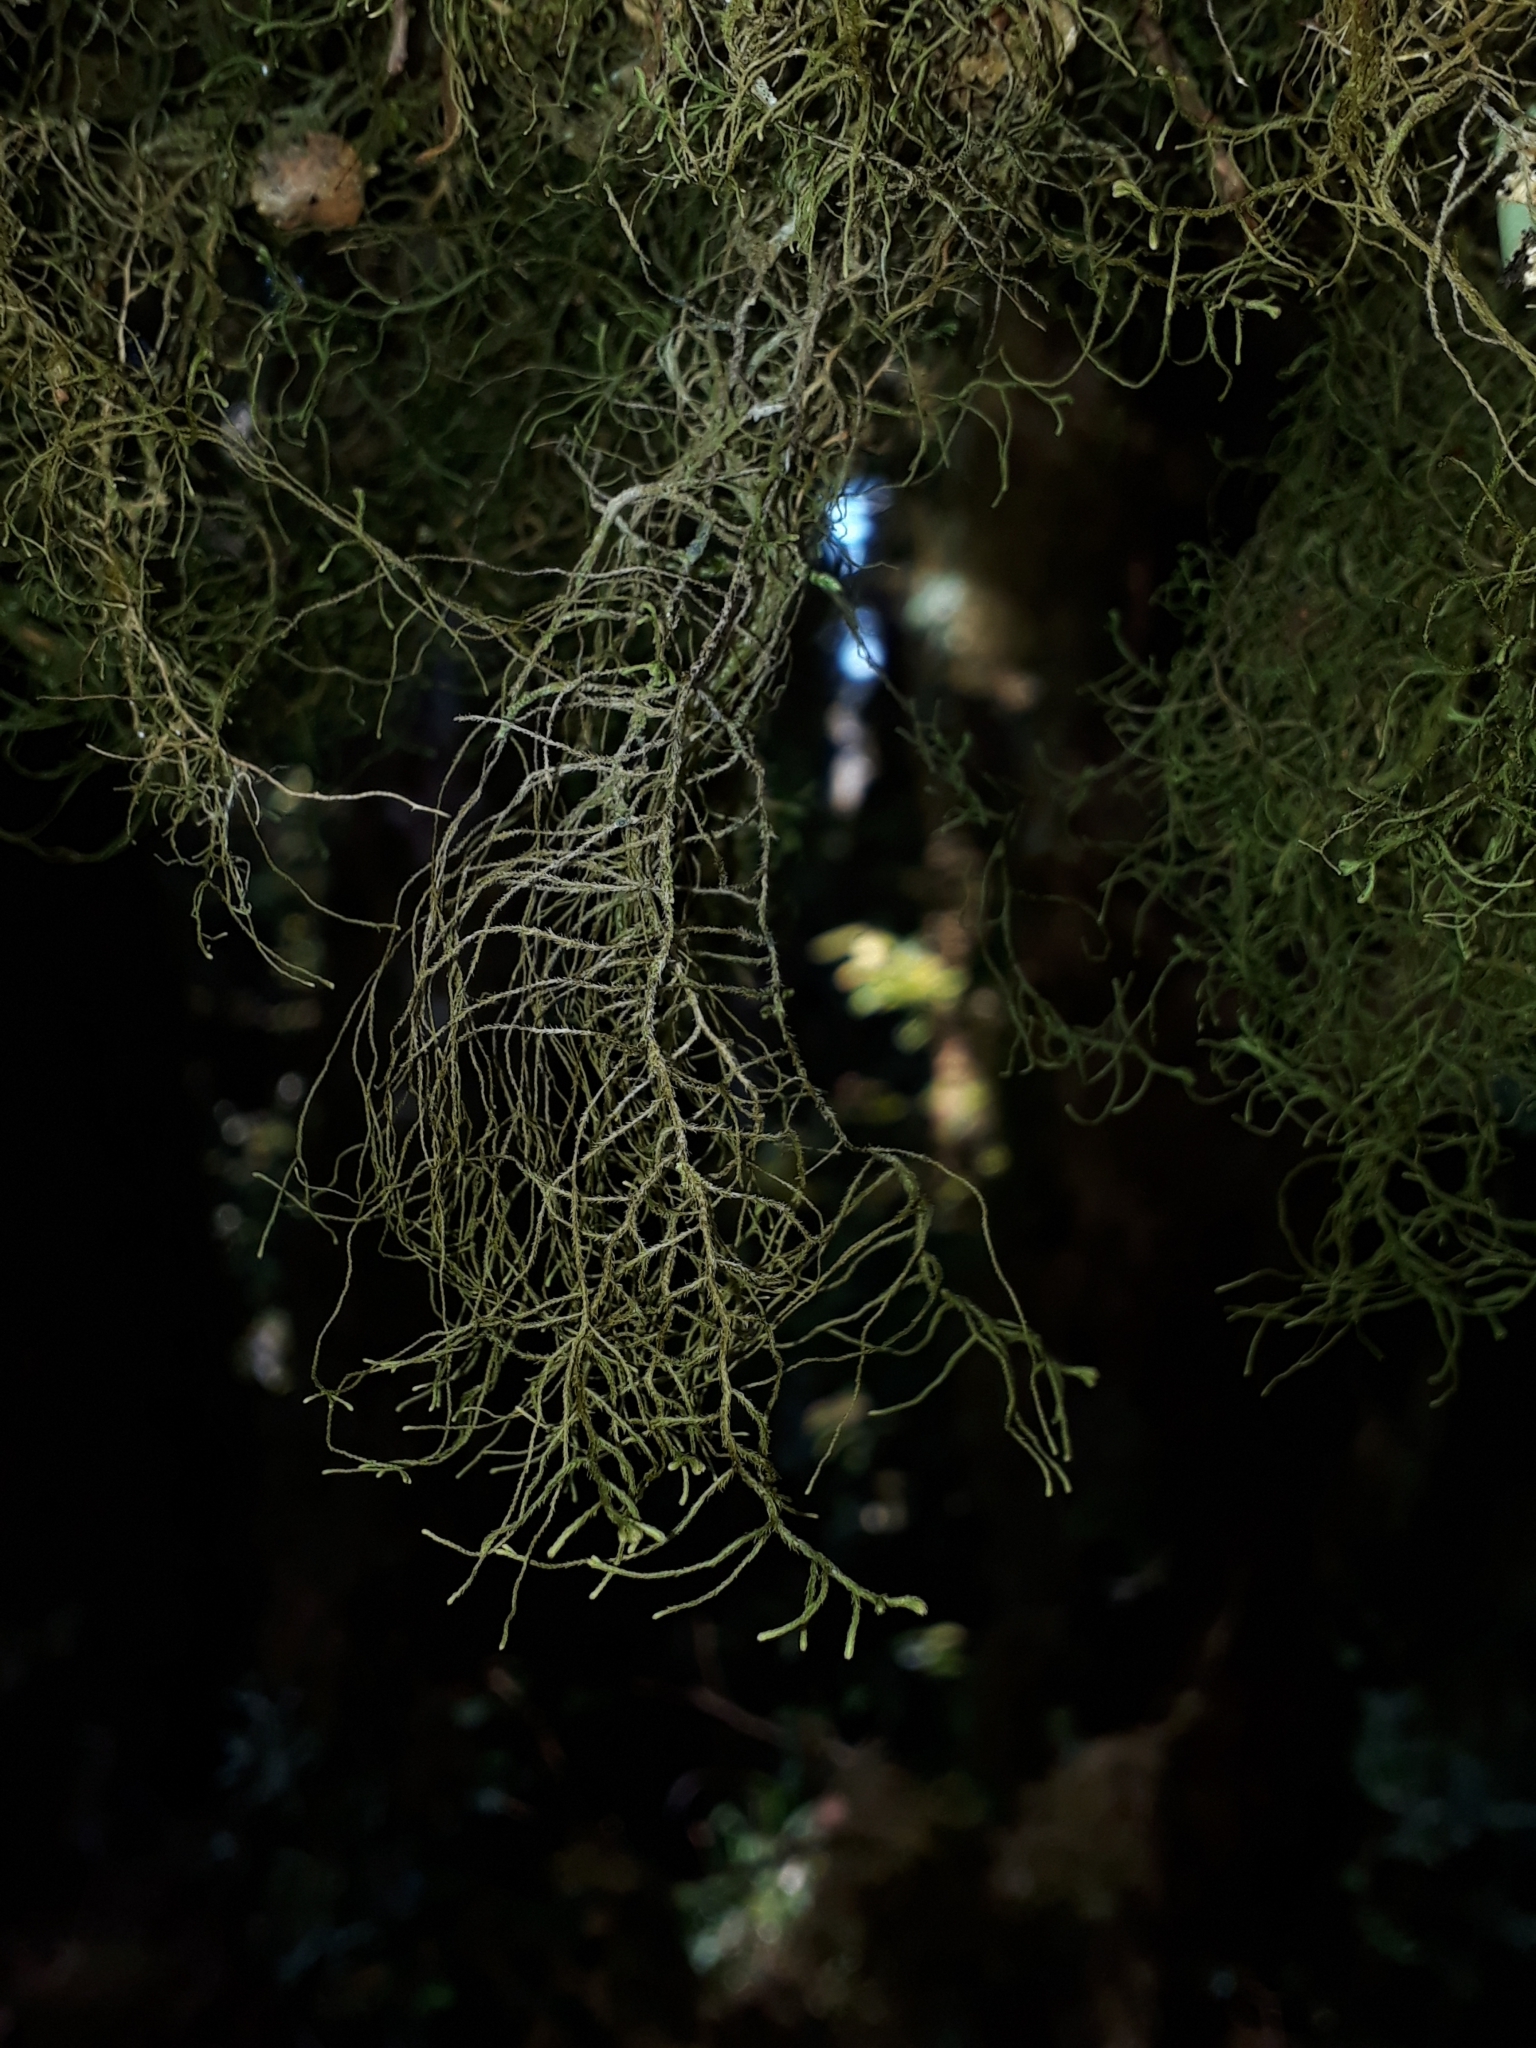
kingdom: Plantae
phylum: Marchantiophyta
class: Jungermanniopsida
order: Jungermanniales
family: Mastigophoraceae
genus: Dendromastigophora
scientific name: Dendromastigophora flagellifera
